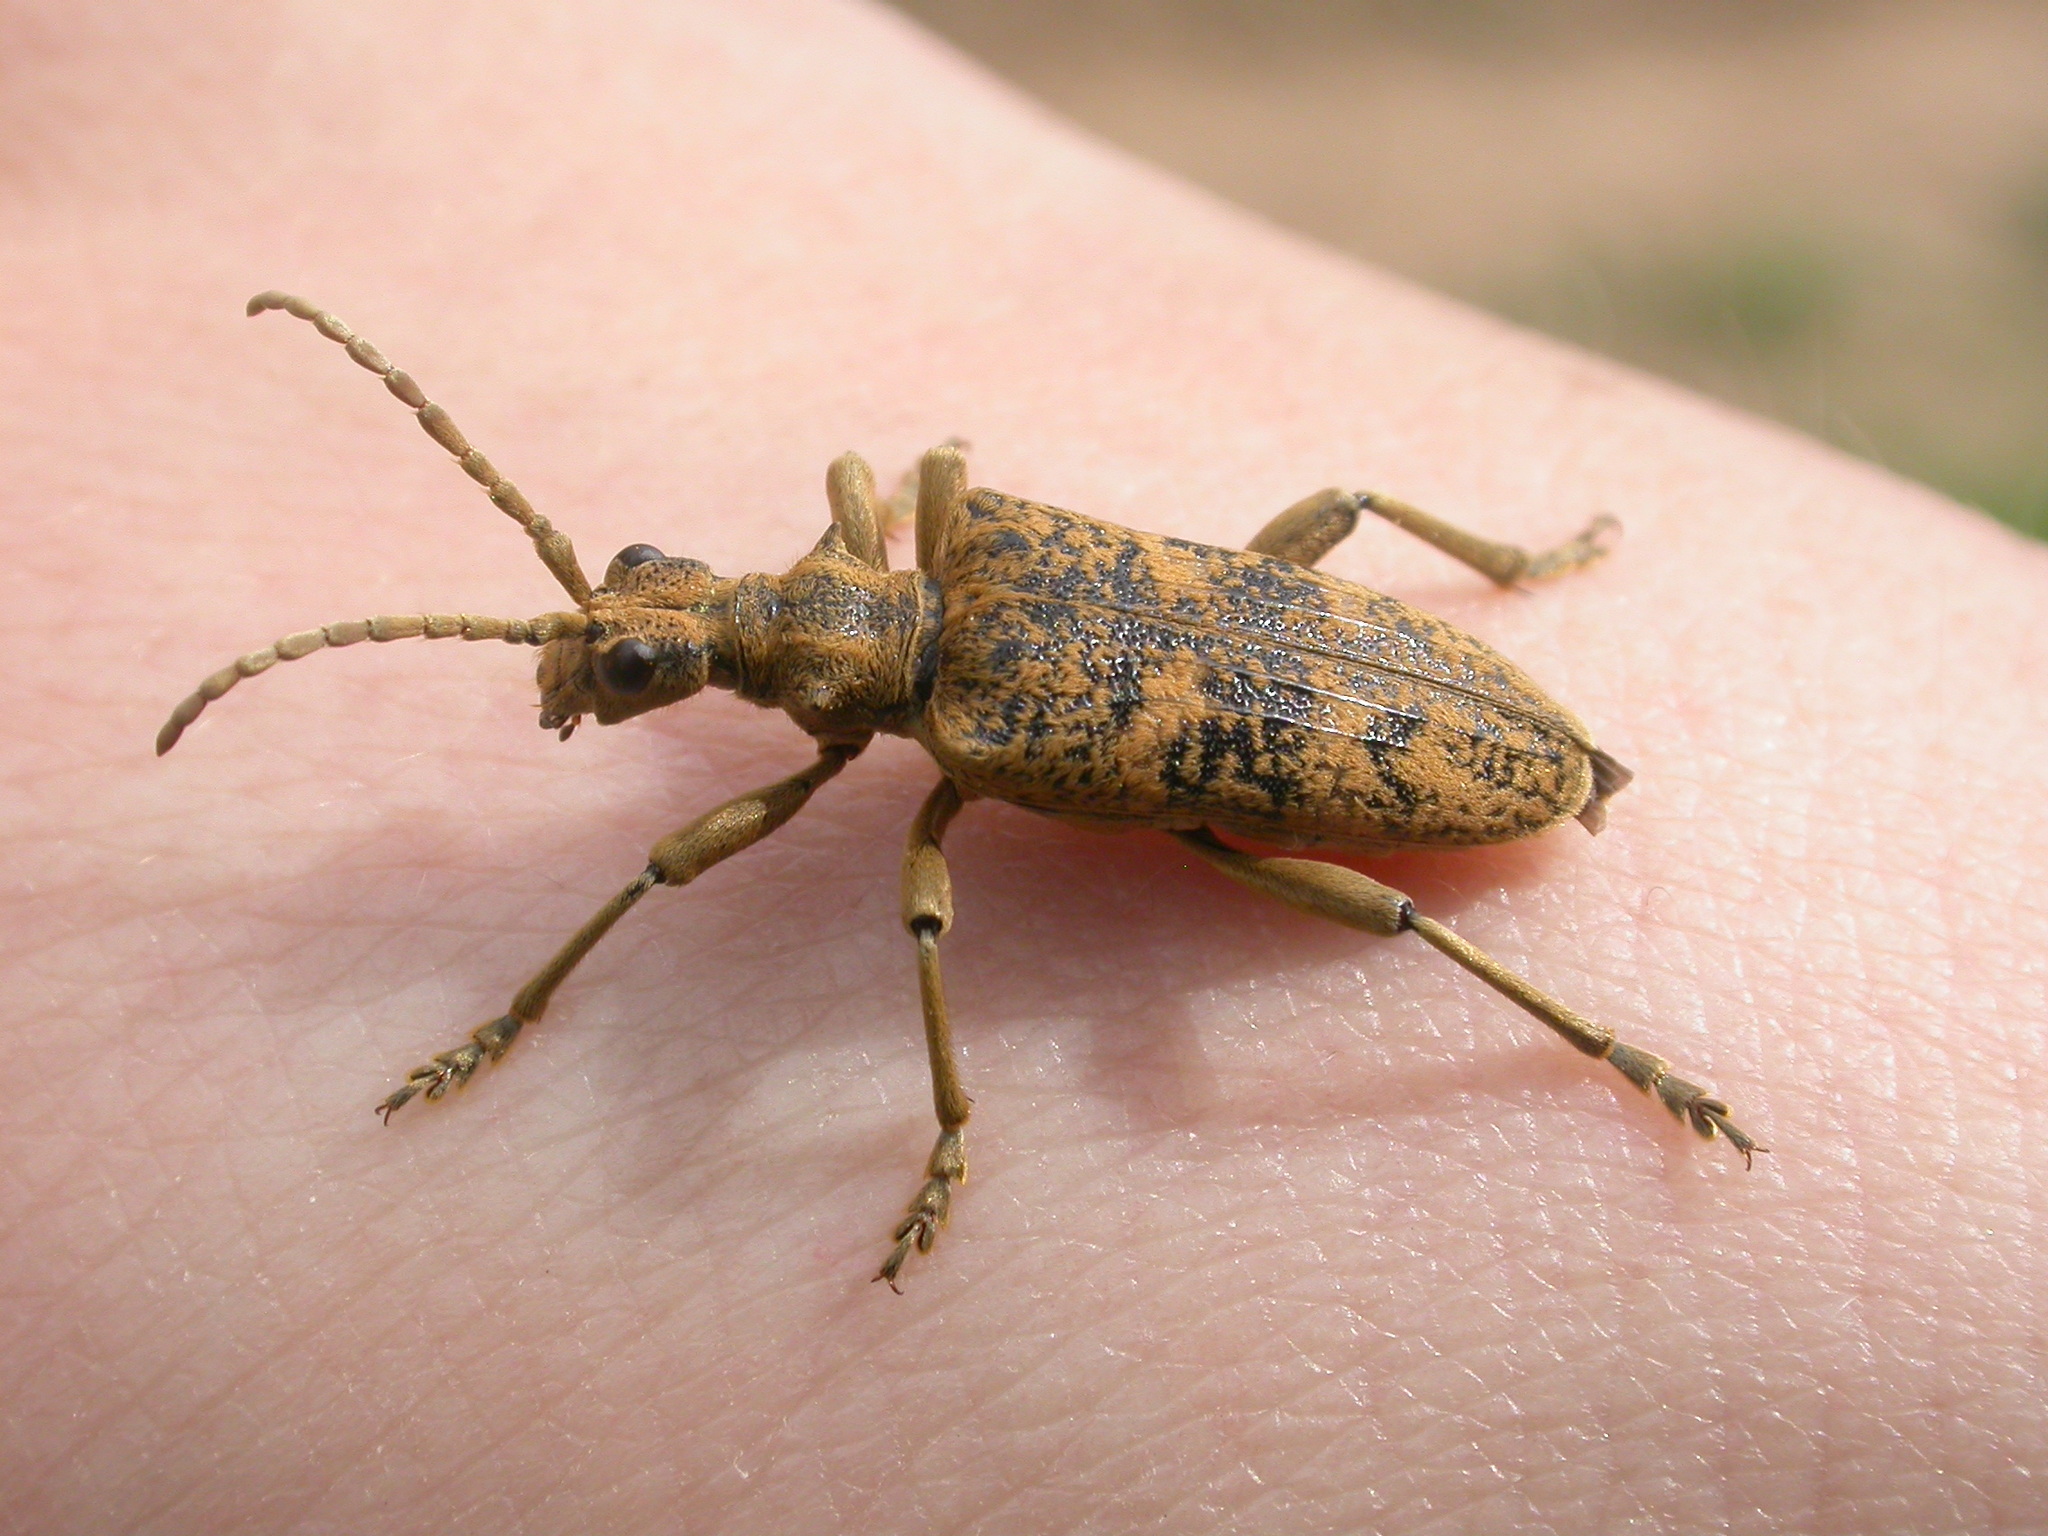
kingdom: Animalia
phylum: Arthropoda
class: Insecta
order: Coleoptera
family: Cerambycidae
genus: Rhagium
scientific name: Rhagium sycophanta
